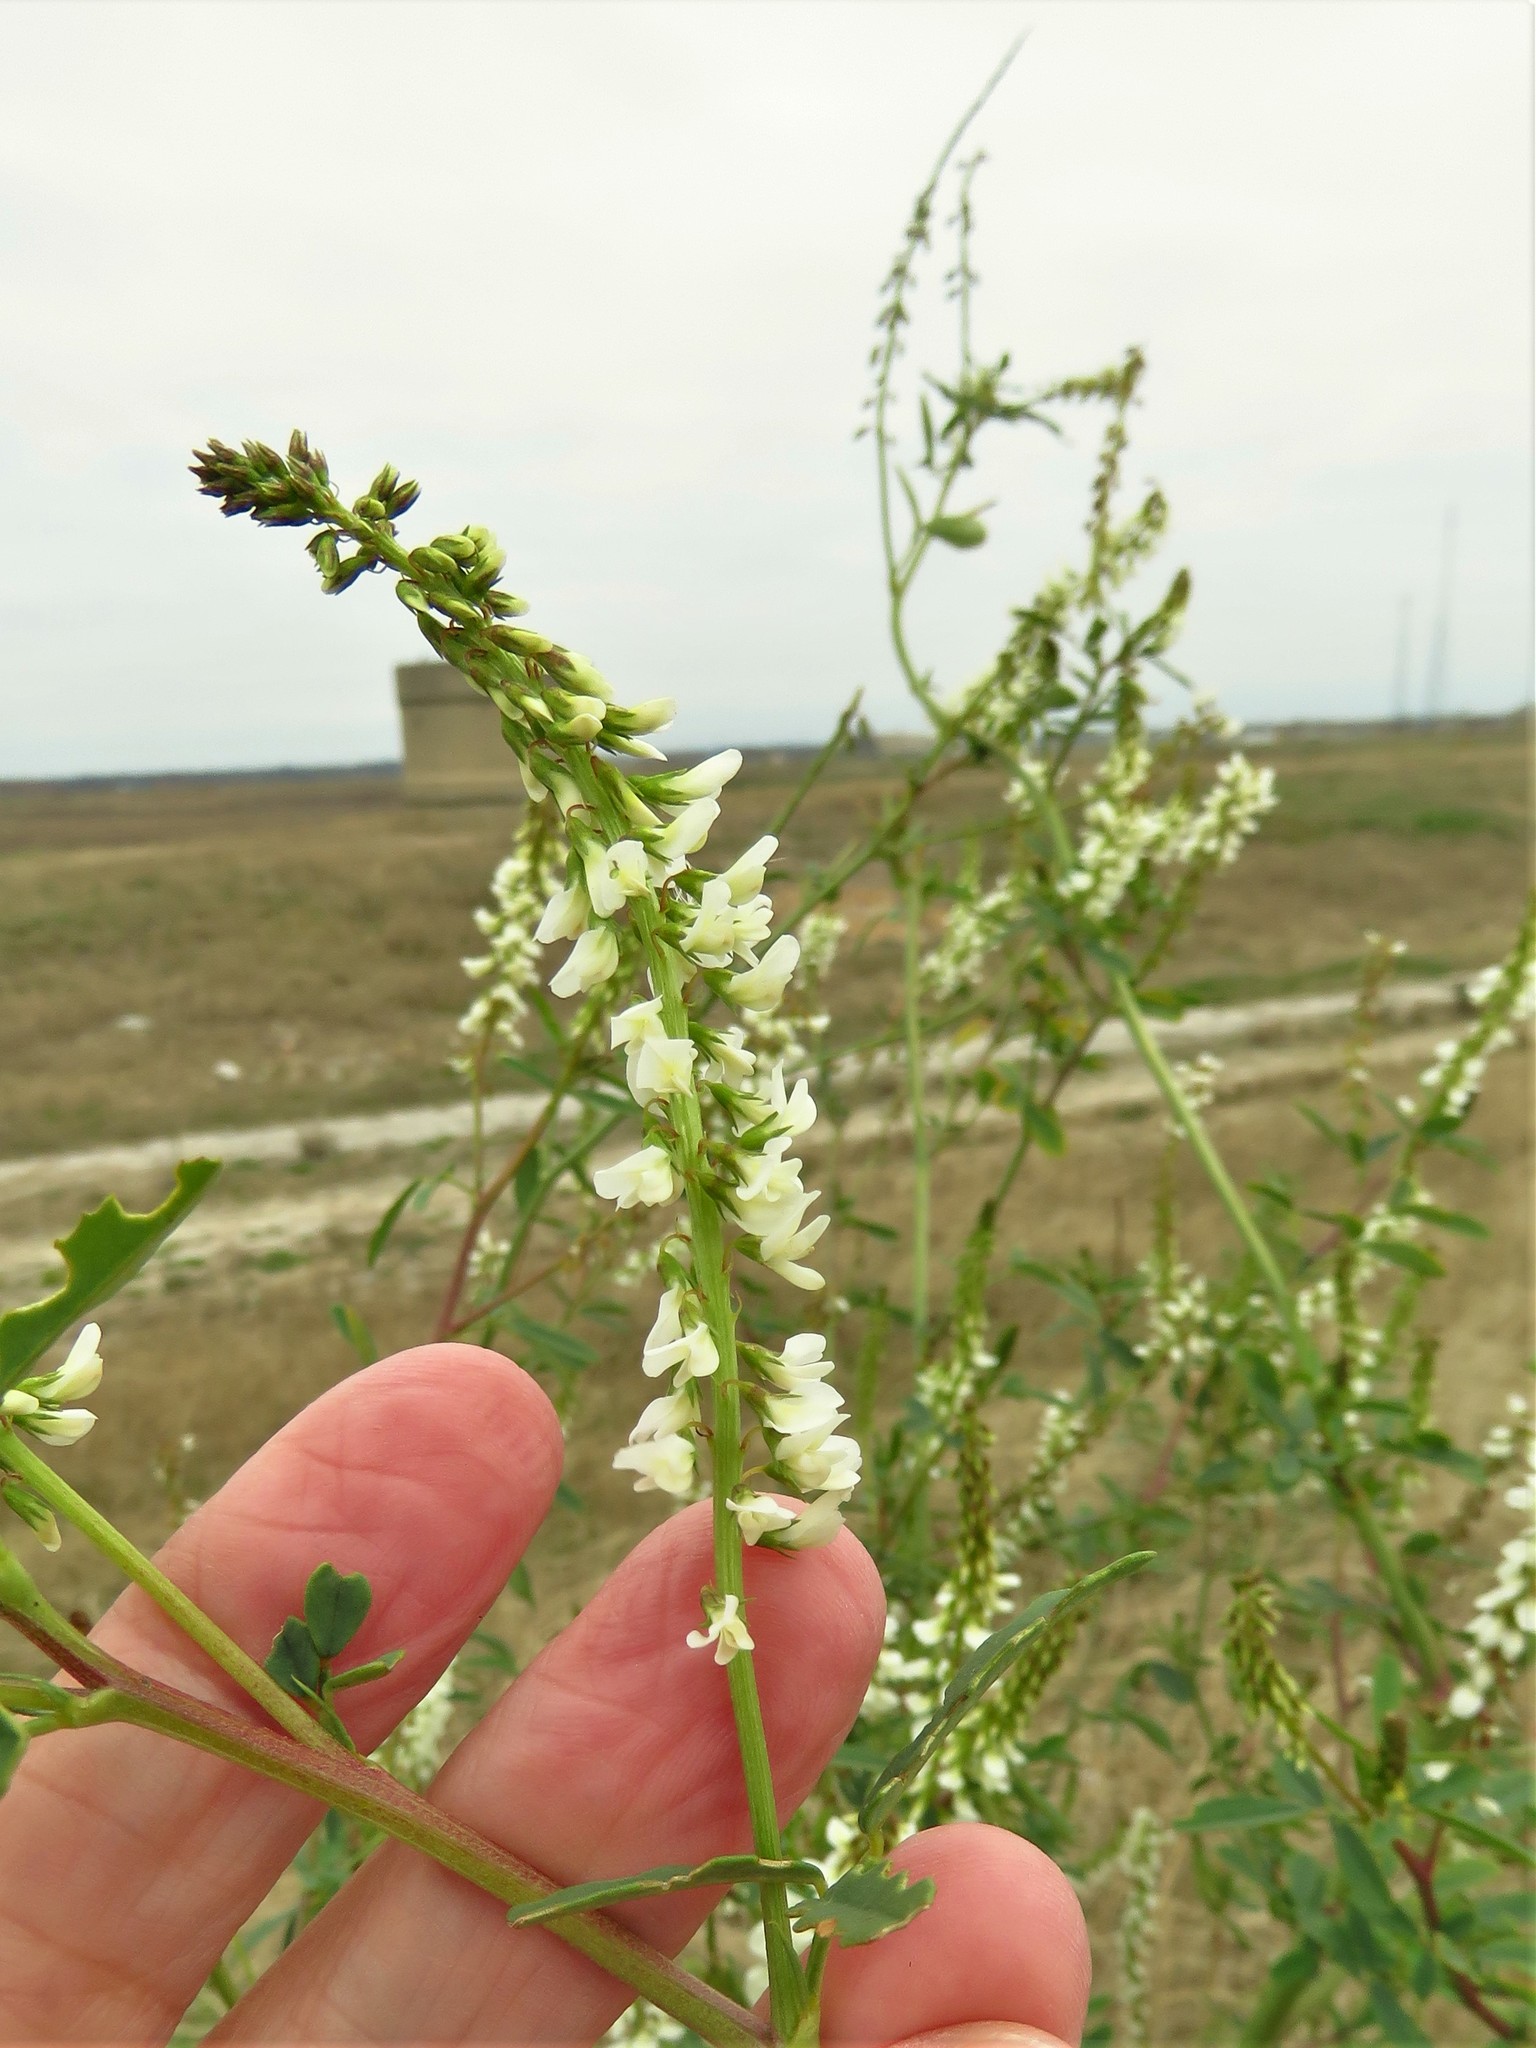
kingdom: Plantae
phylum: Tracheophyta
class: Magnoliopsida
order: Fabales
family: Fabaceae
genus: Melilotus
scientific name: Melilotus albus
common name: White melilot
